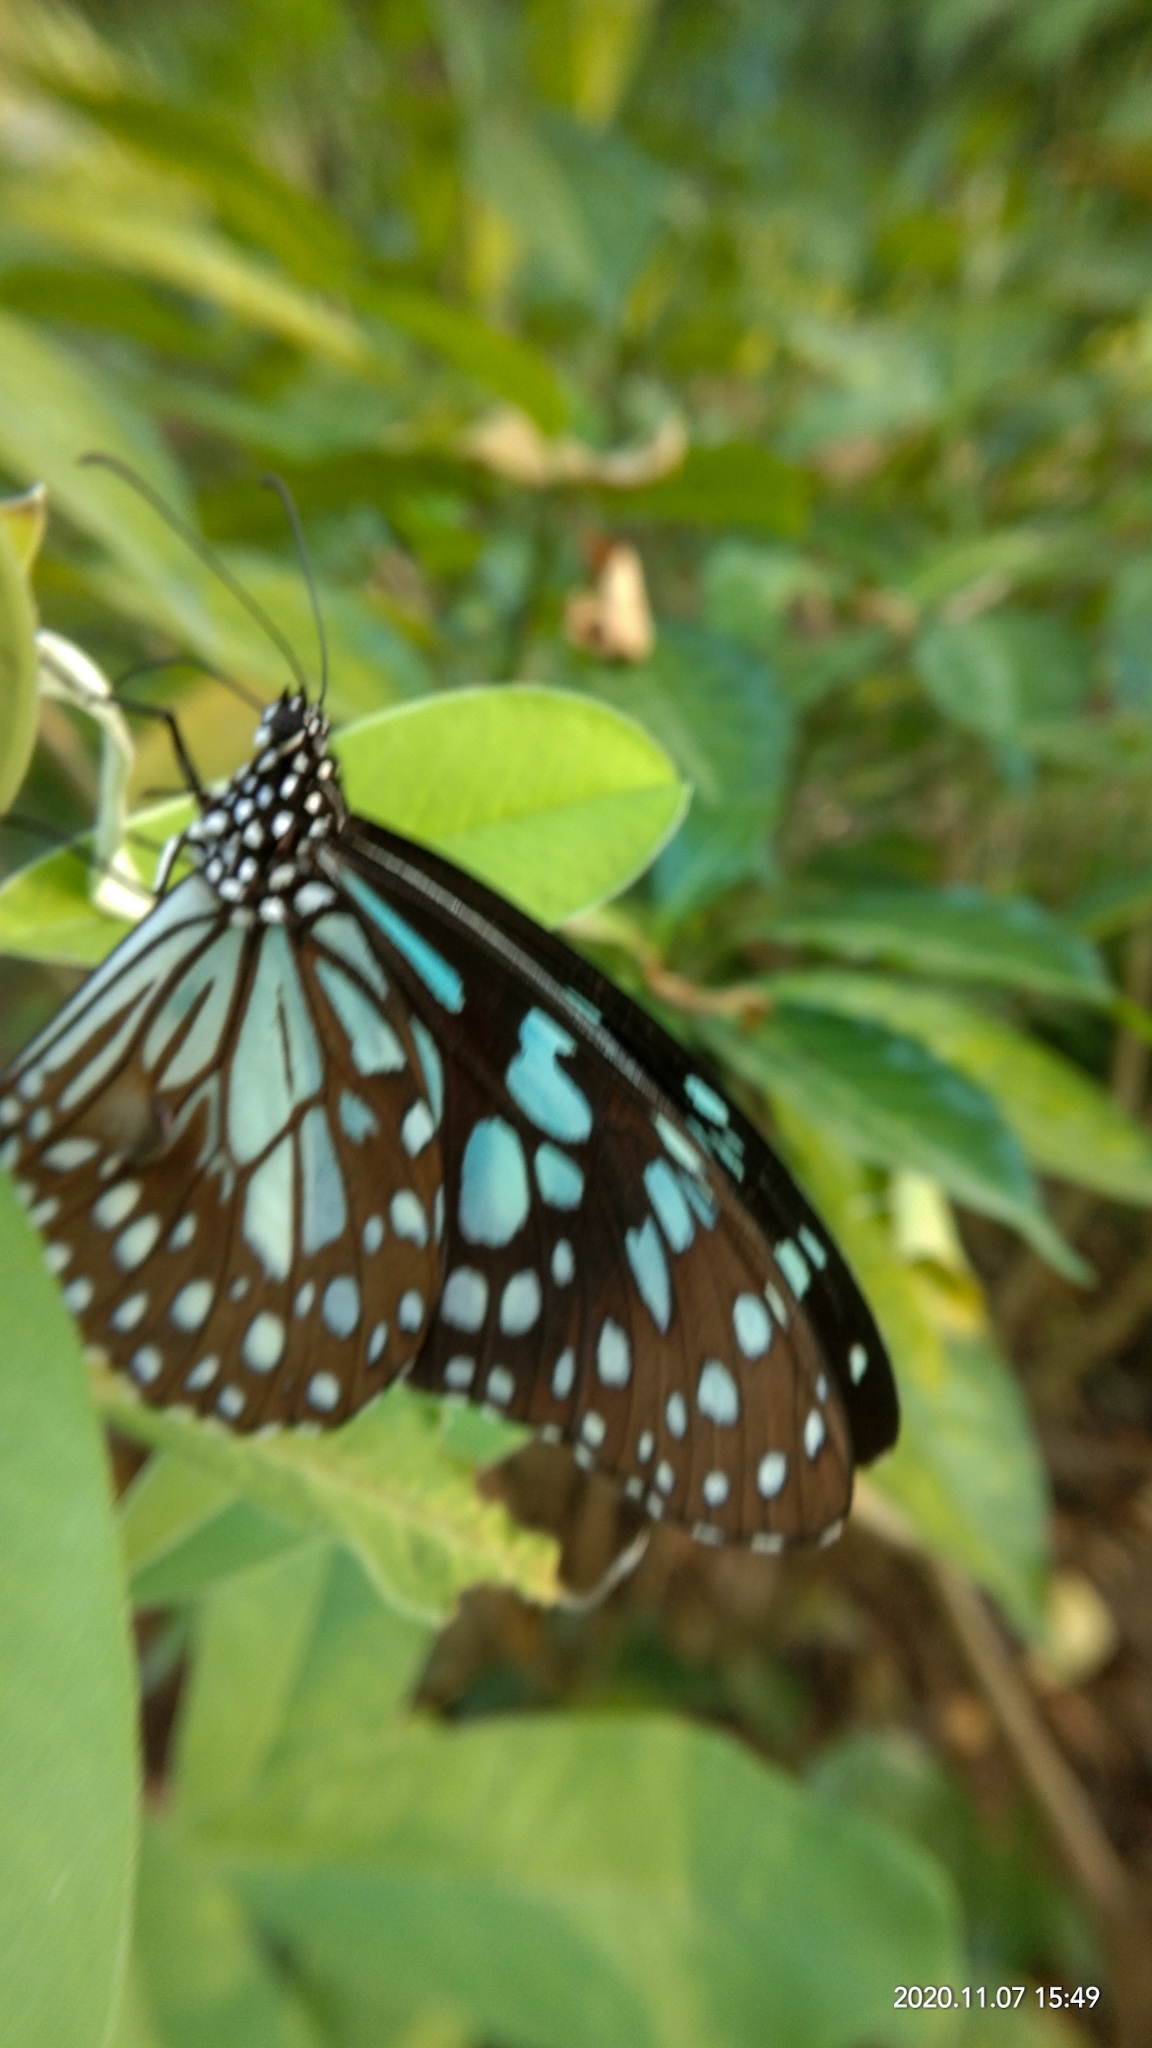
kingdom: Animalia
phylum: Arthropoda
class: Insecta
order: Lepidoptera
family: Nymphalidae
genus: Tirumala
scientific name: Tirumala limniace
